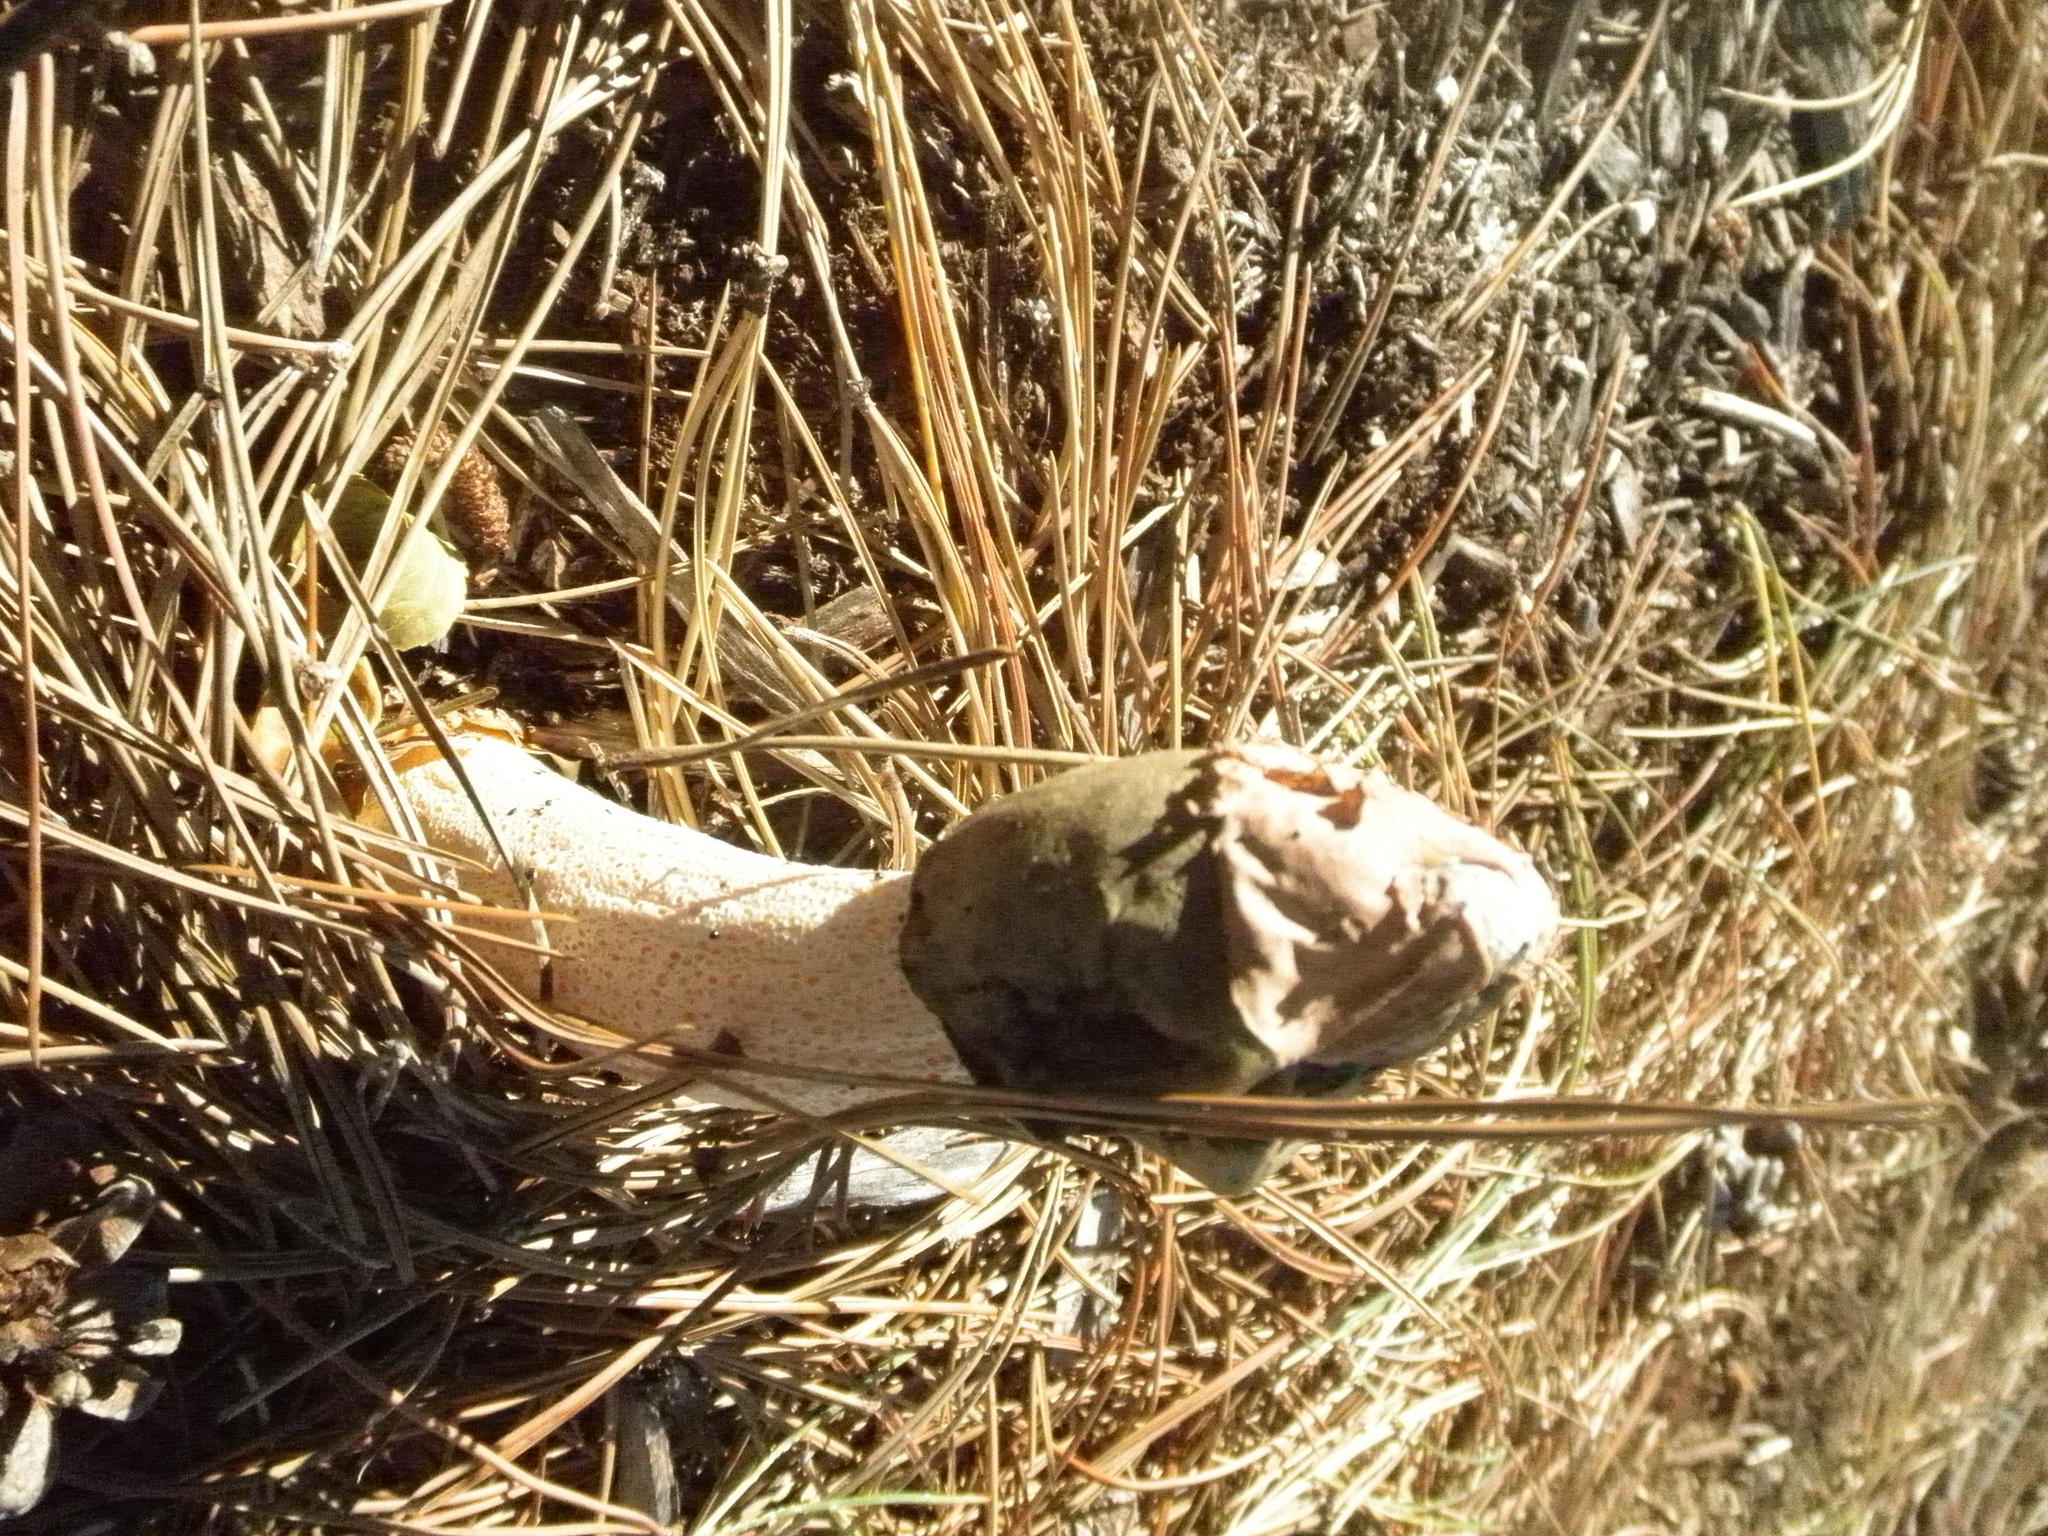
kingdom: Fungi
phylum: Basidiomycota
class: Agaricomycetes
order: Phallales
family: Phallaceae
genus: Phallus
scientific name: Phallus ravenelii
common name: Ravenel's stinkhorn
